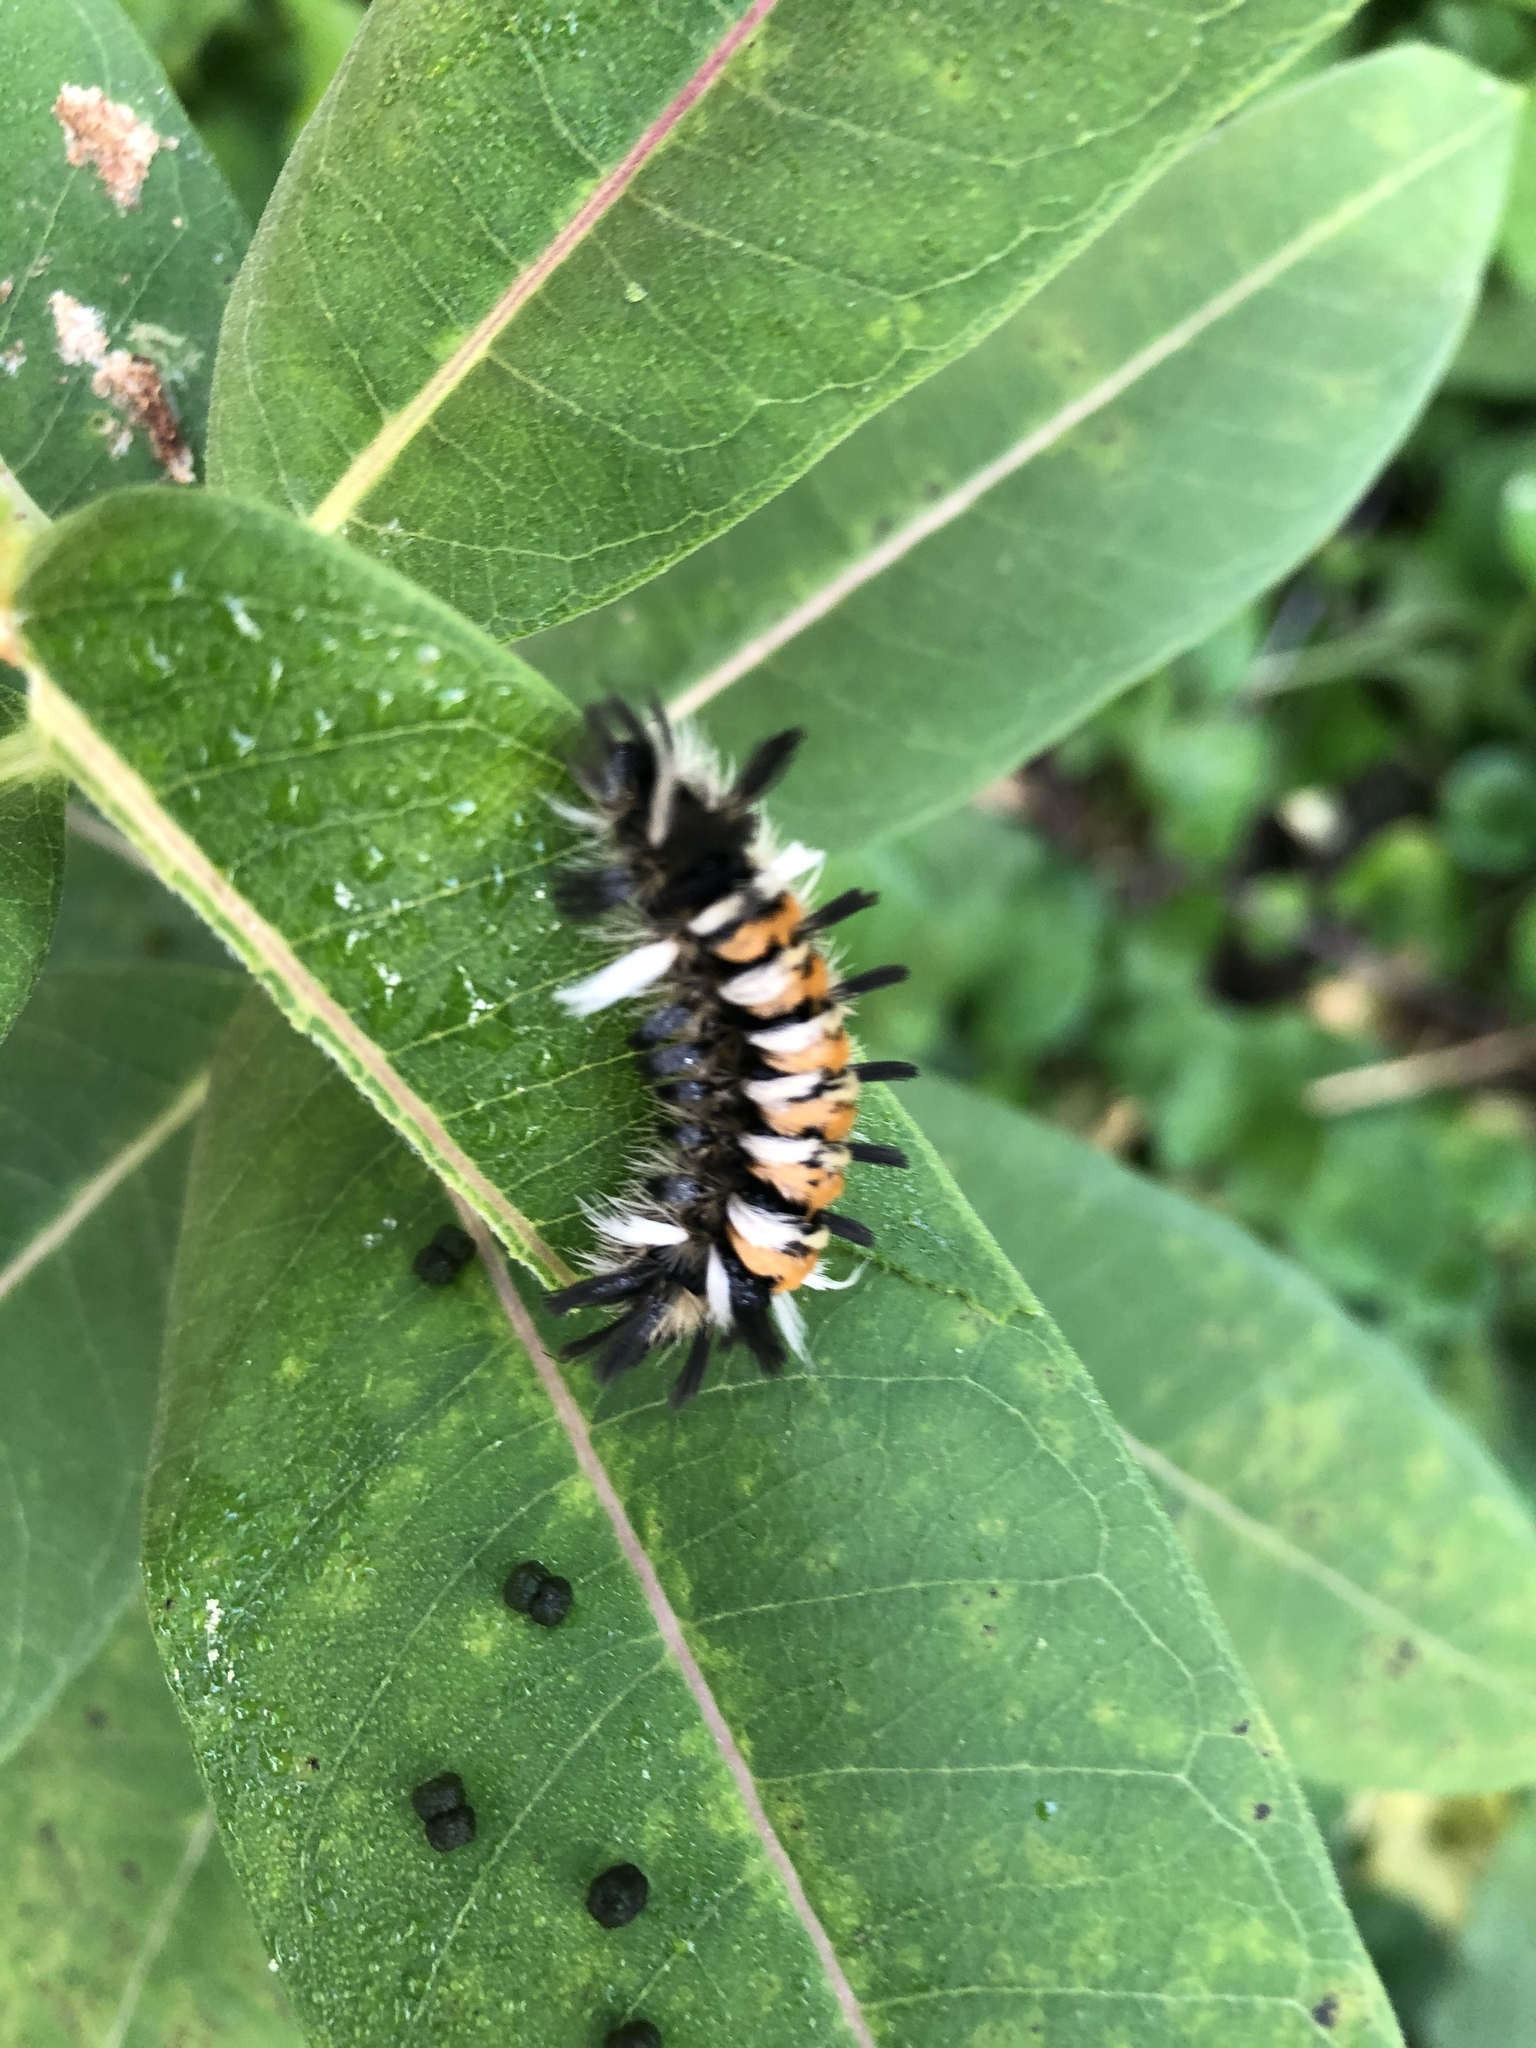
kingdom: Animalia
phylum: Arthropoda
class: Insecta
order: Lepidoptera
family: Erebidae
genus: Euchaetes
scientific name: Euchaetes egle
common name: Milkweed tussock moth
